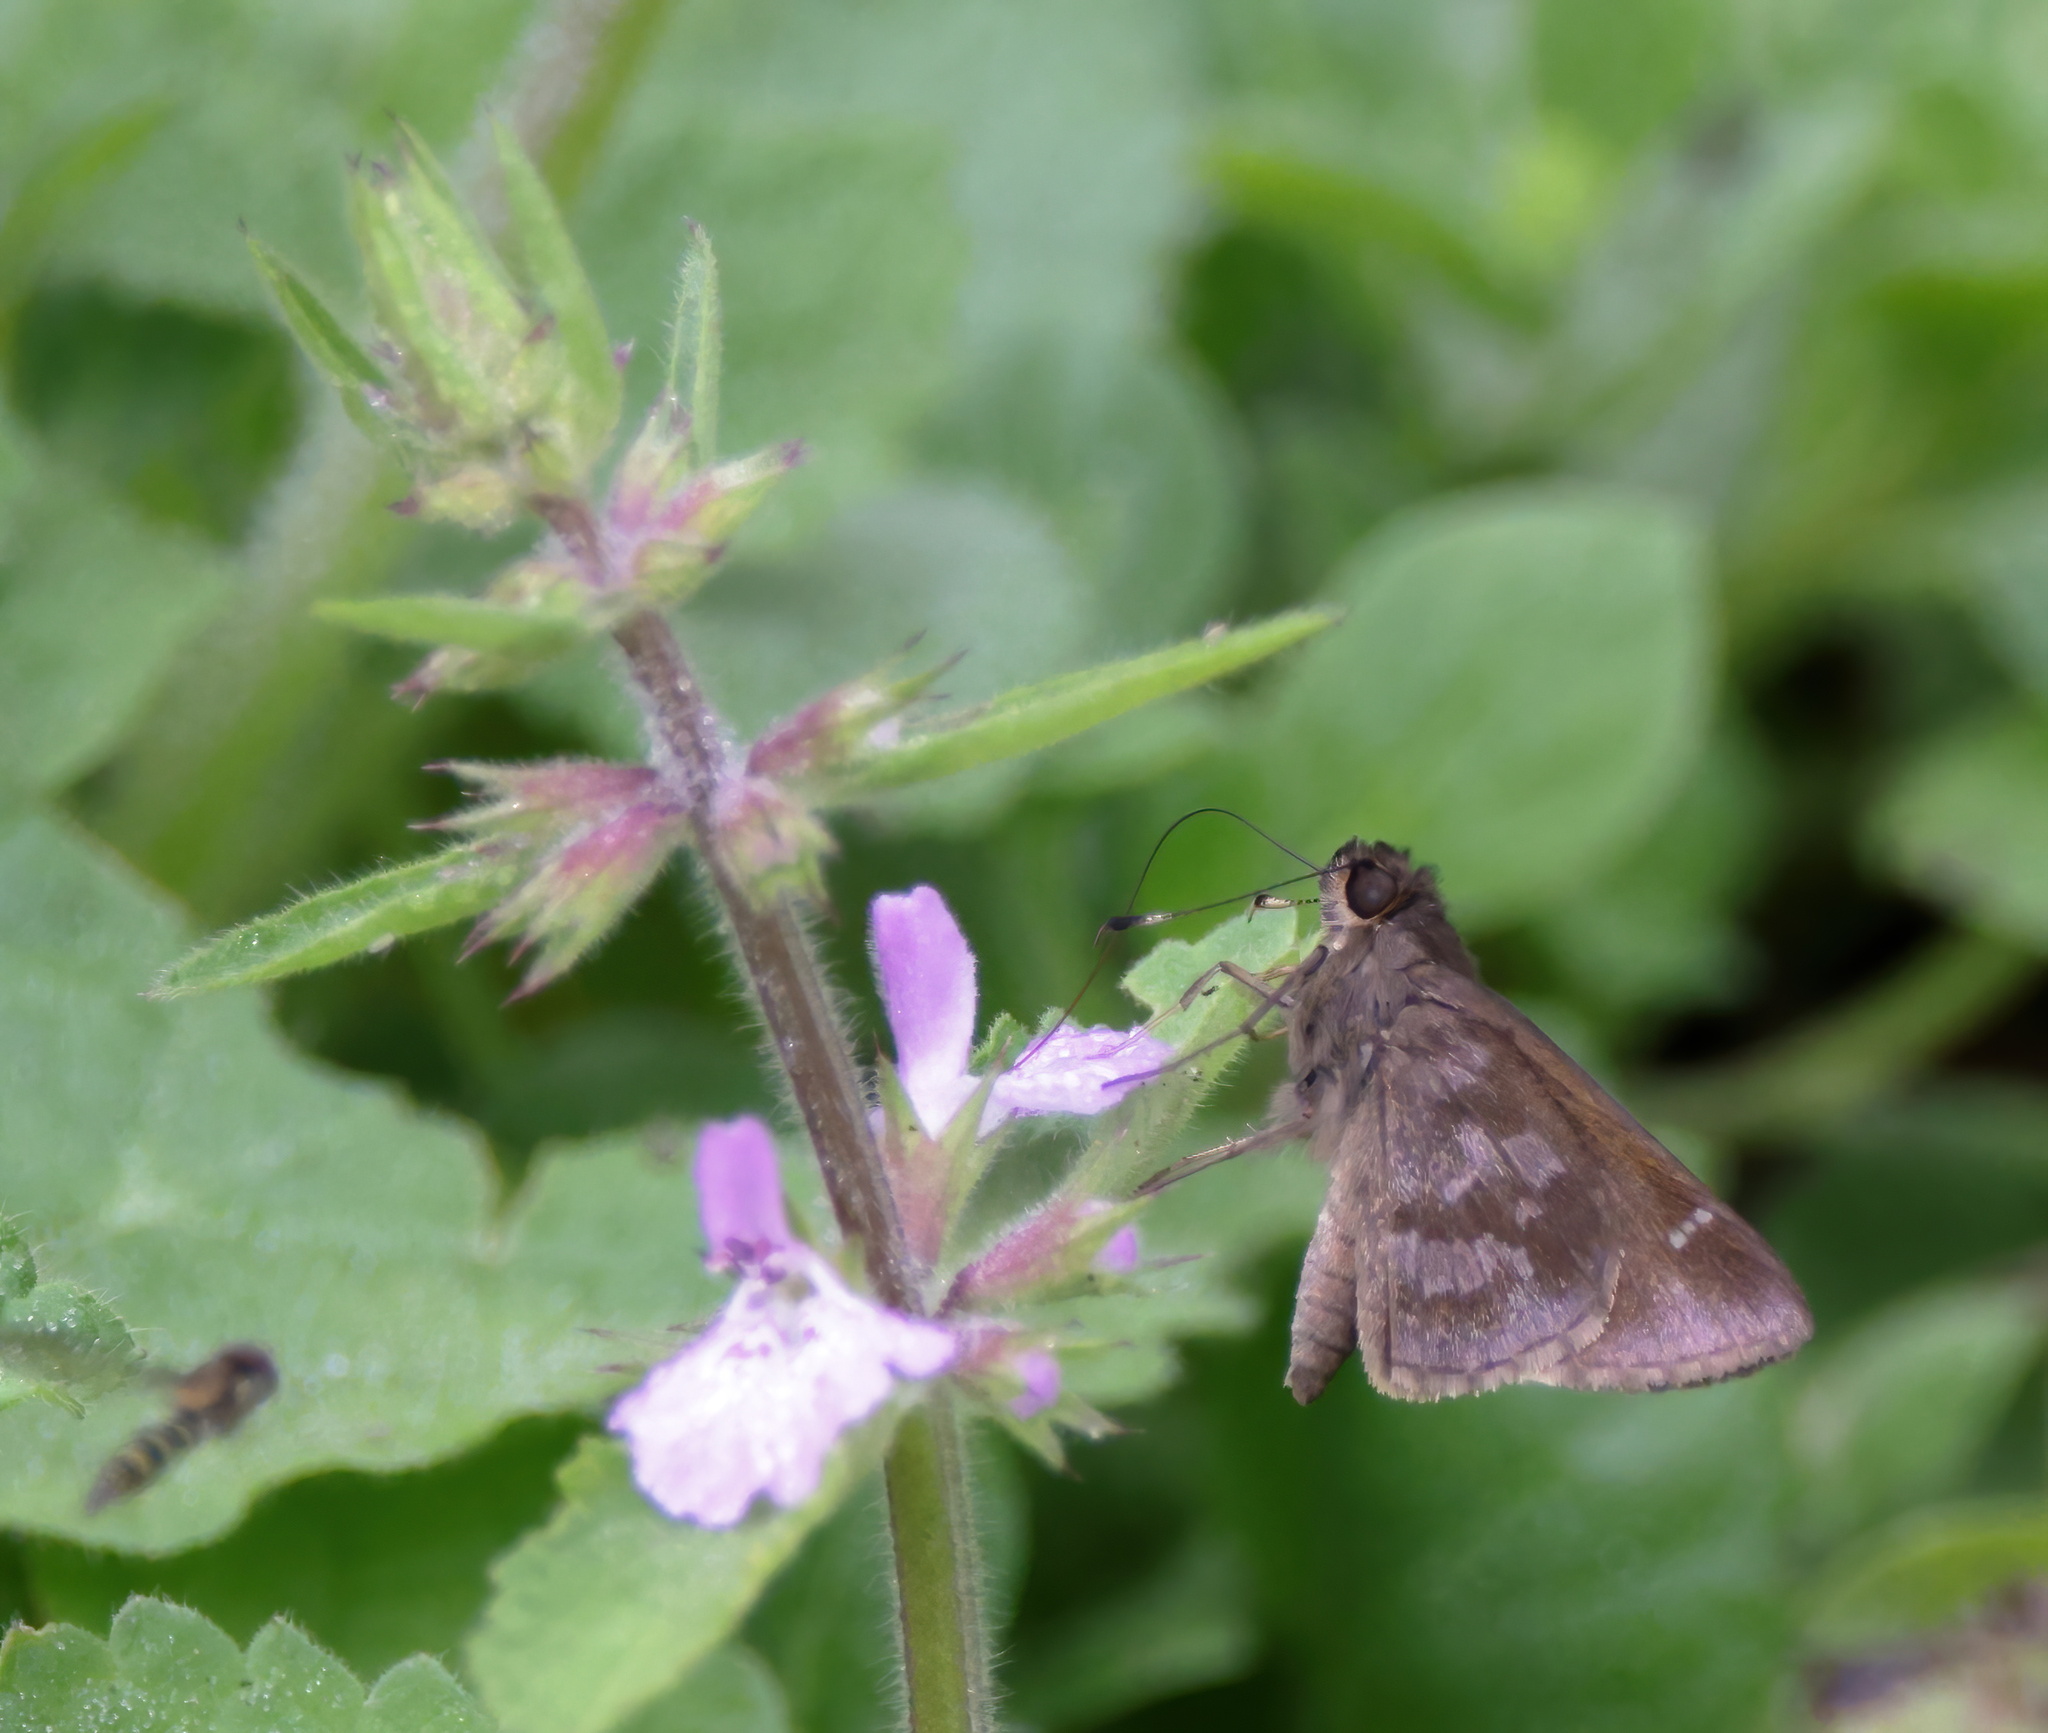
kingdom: Animalia
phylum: Arthropoda
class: Insecta
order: Lepidoptera
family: Hesperiidae
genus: Cymaenes
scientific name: Cymaenes
